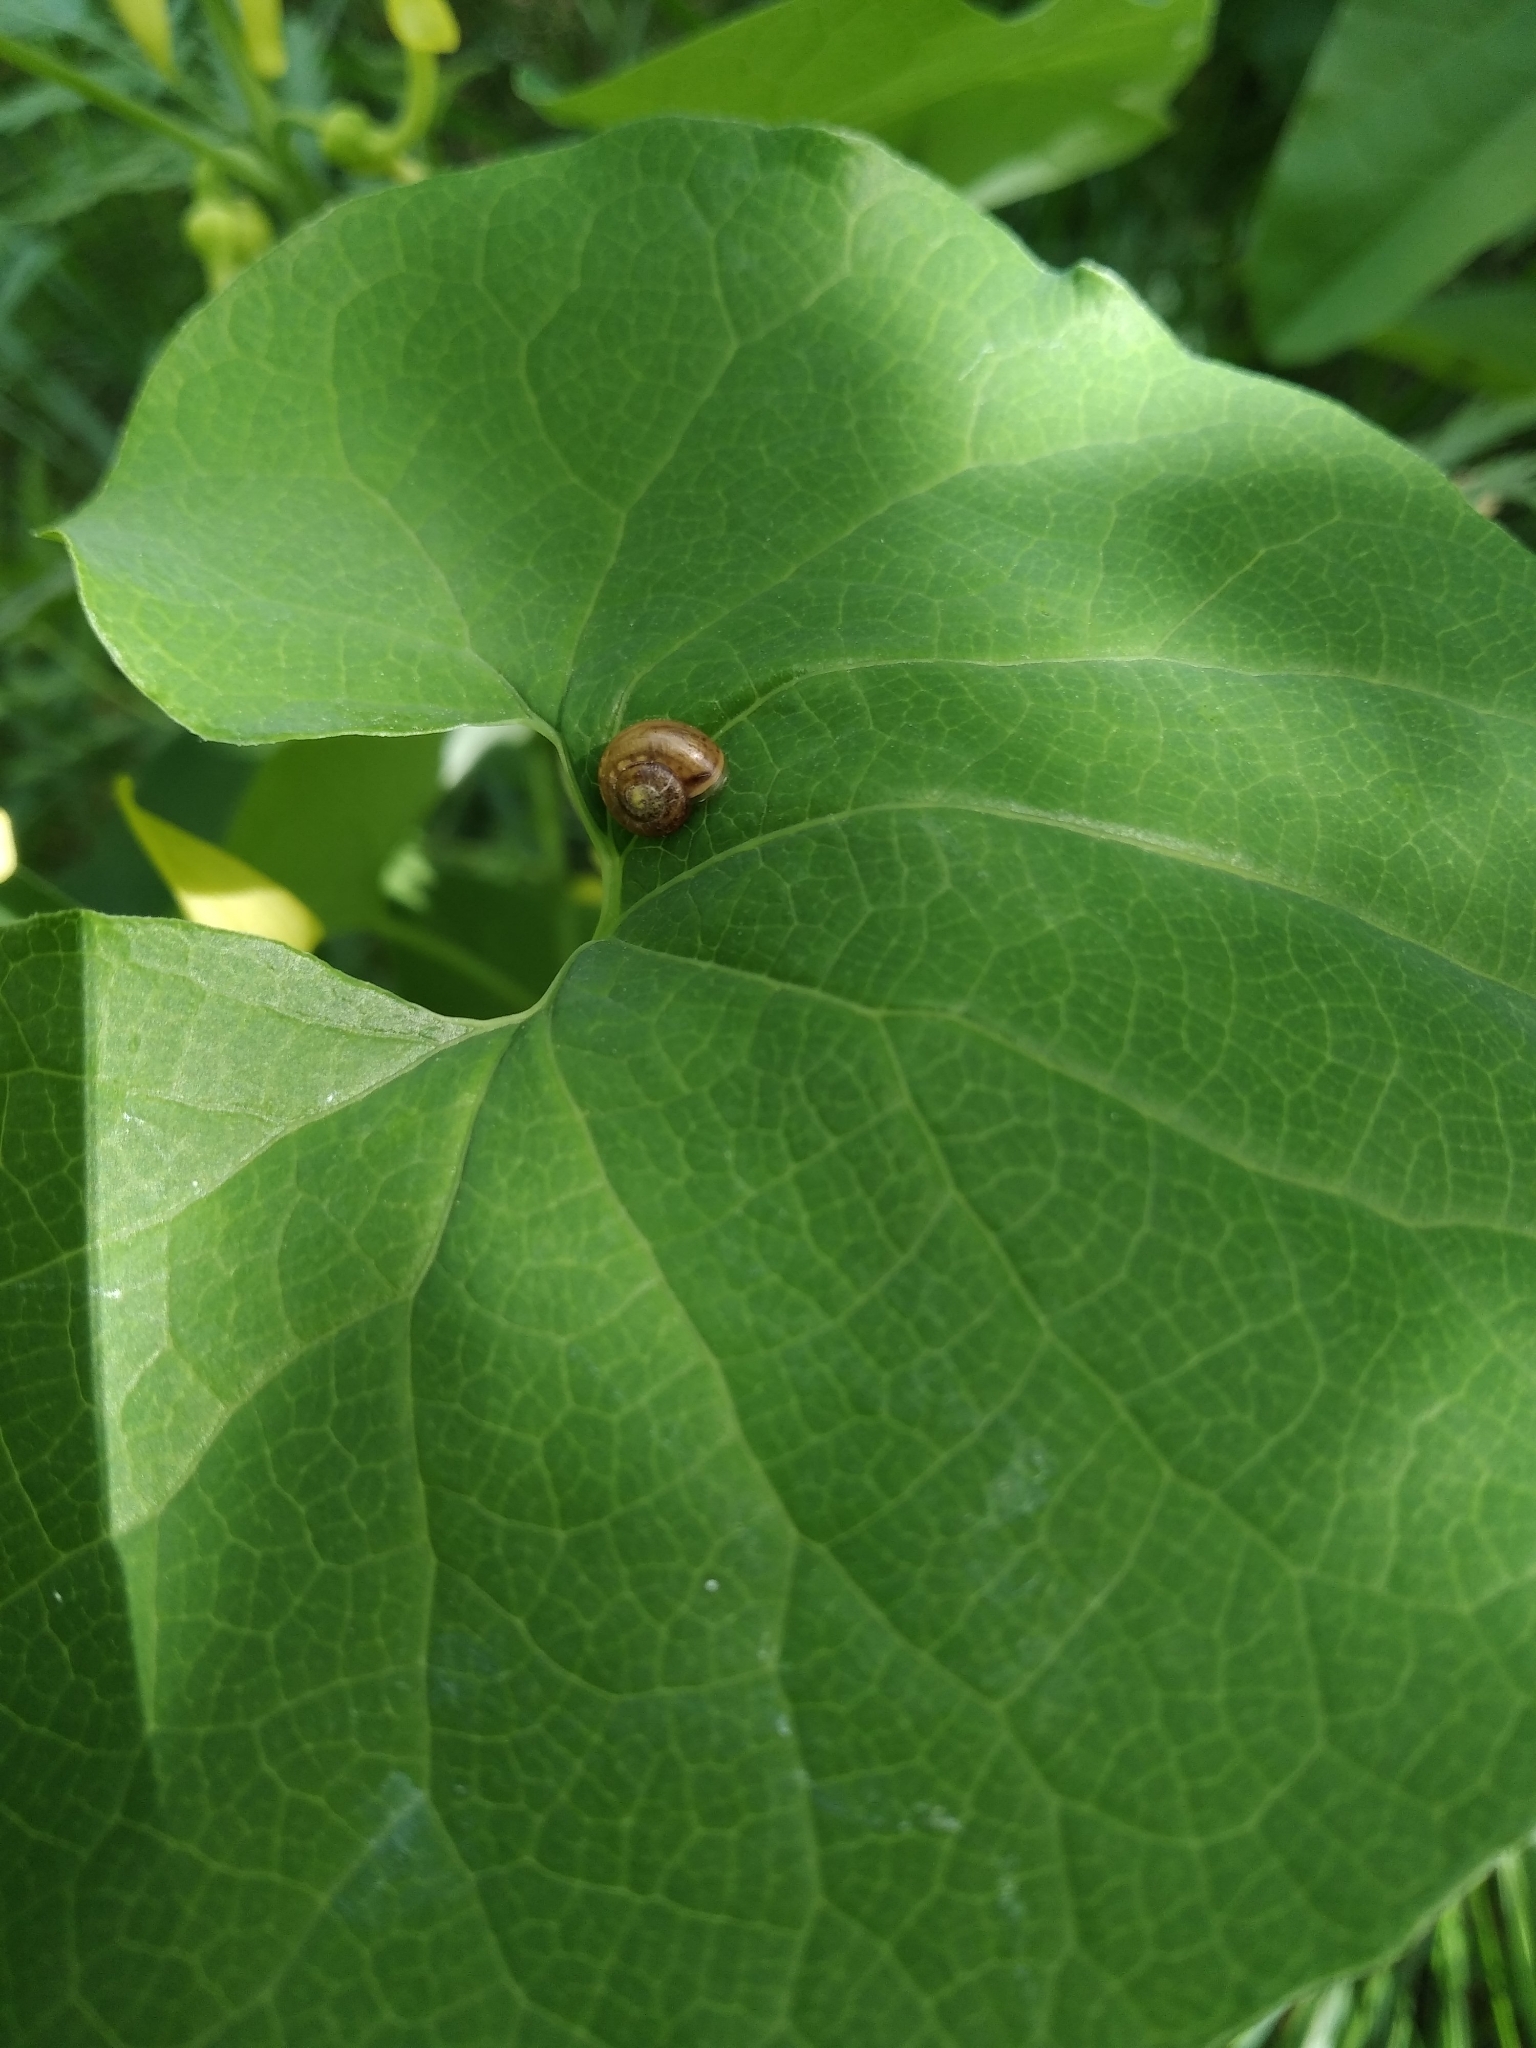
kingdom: Animalia
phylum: Mollusca
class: Gastropoda
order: Stylommatophora
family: Camaenidae
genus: Fruticicola
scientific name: Fruticicola fruticum
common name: Bush snail
